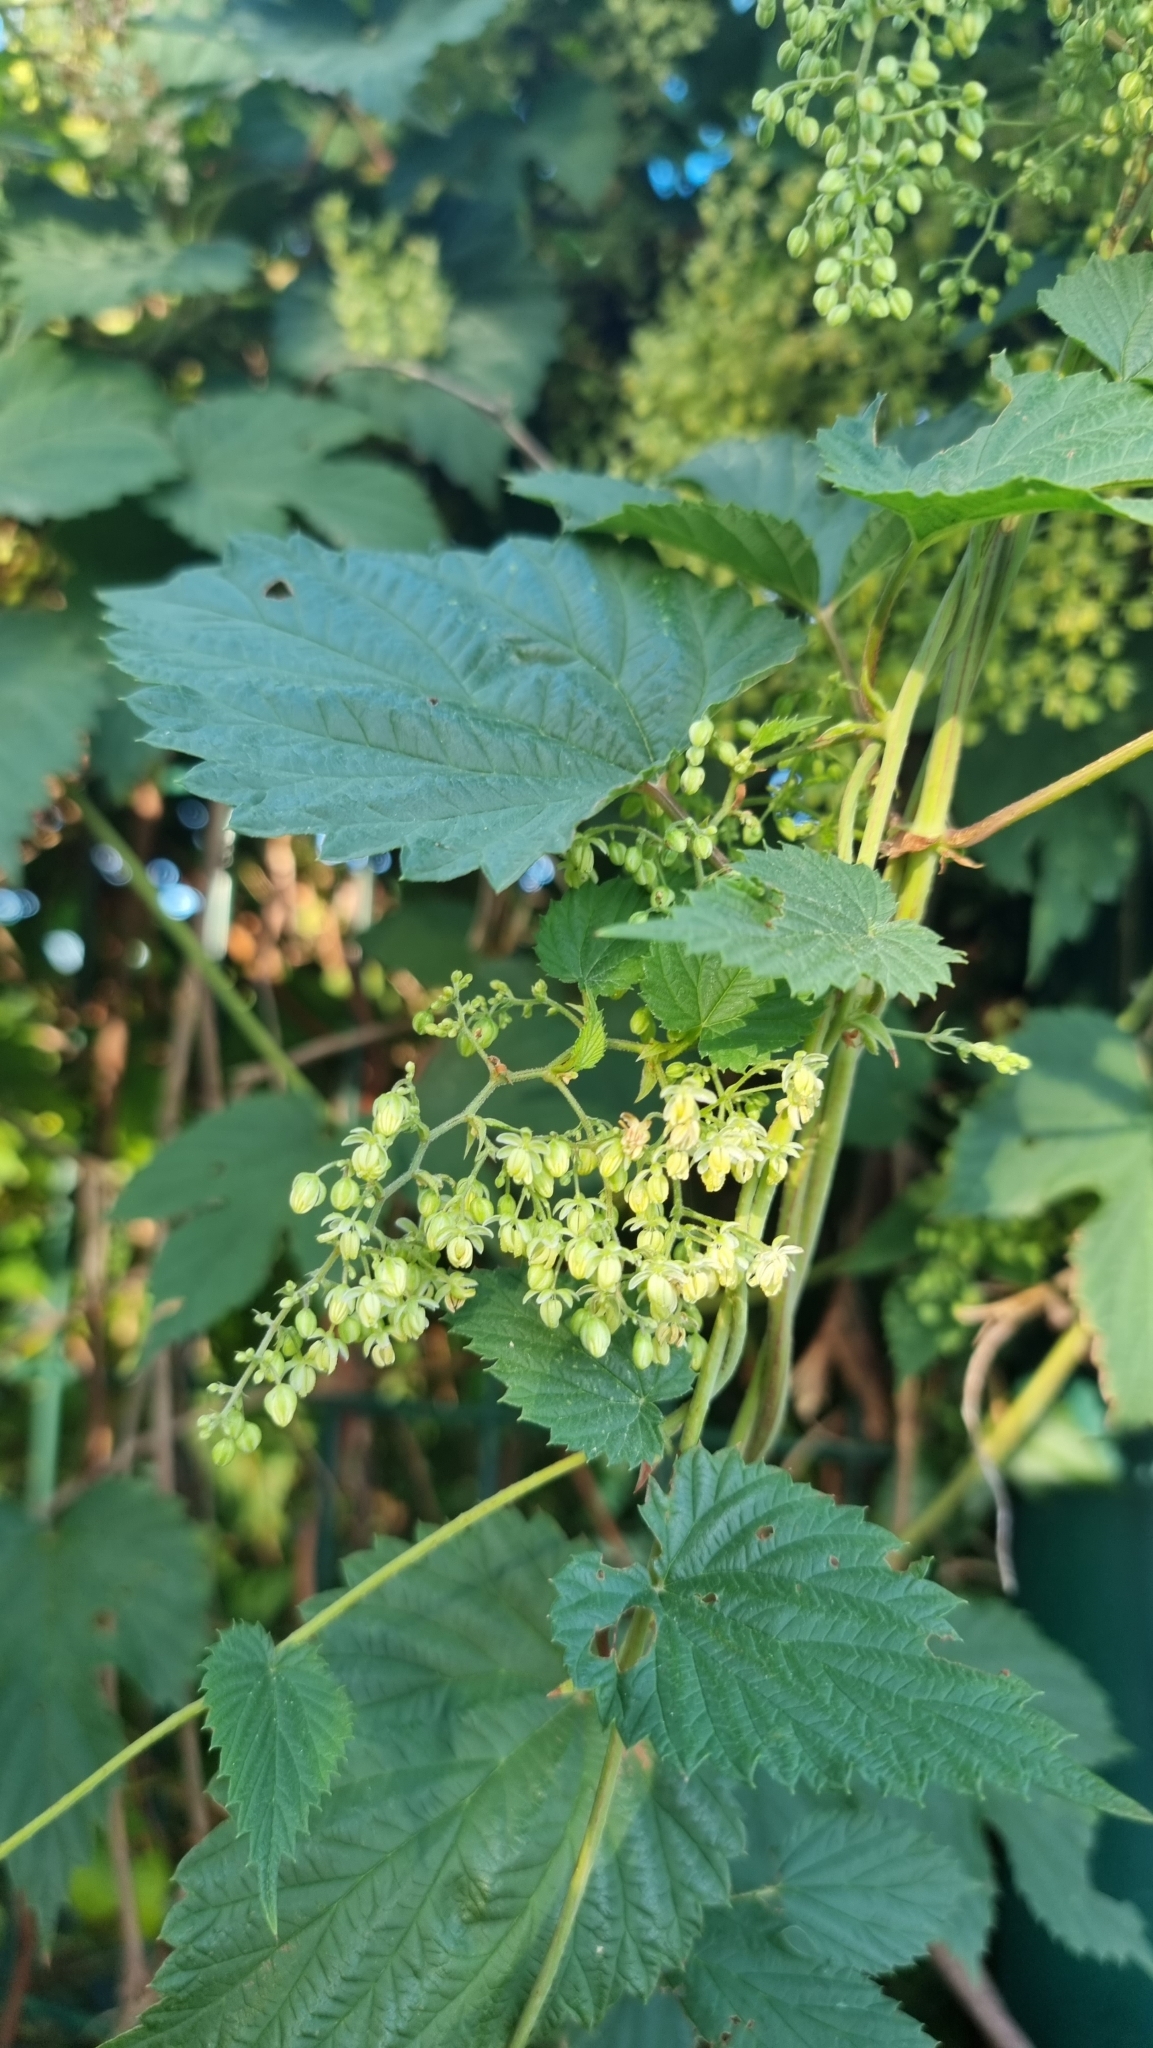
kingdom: Plantae
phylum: Tracheophyta
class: Magnoliopsida
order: Rosales
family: Cannabaceae
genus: Humulus
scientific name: Humulus lupulus
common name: Hop
